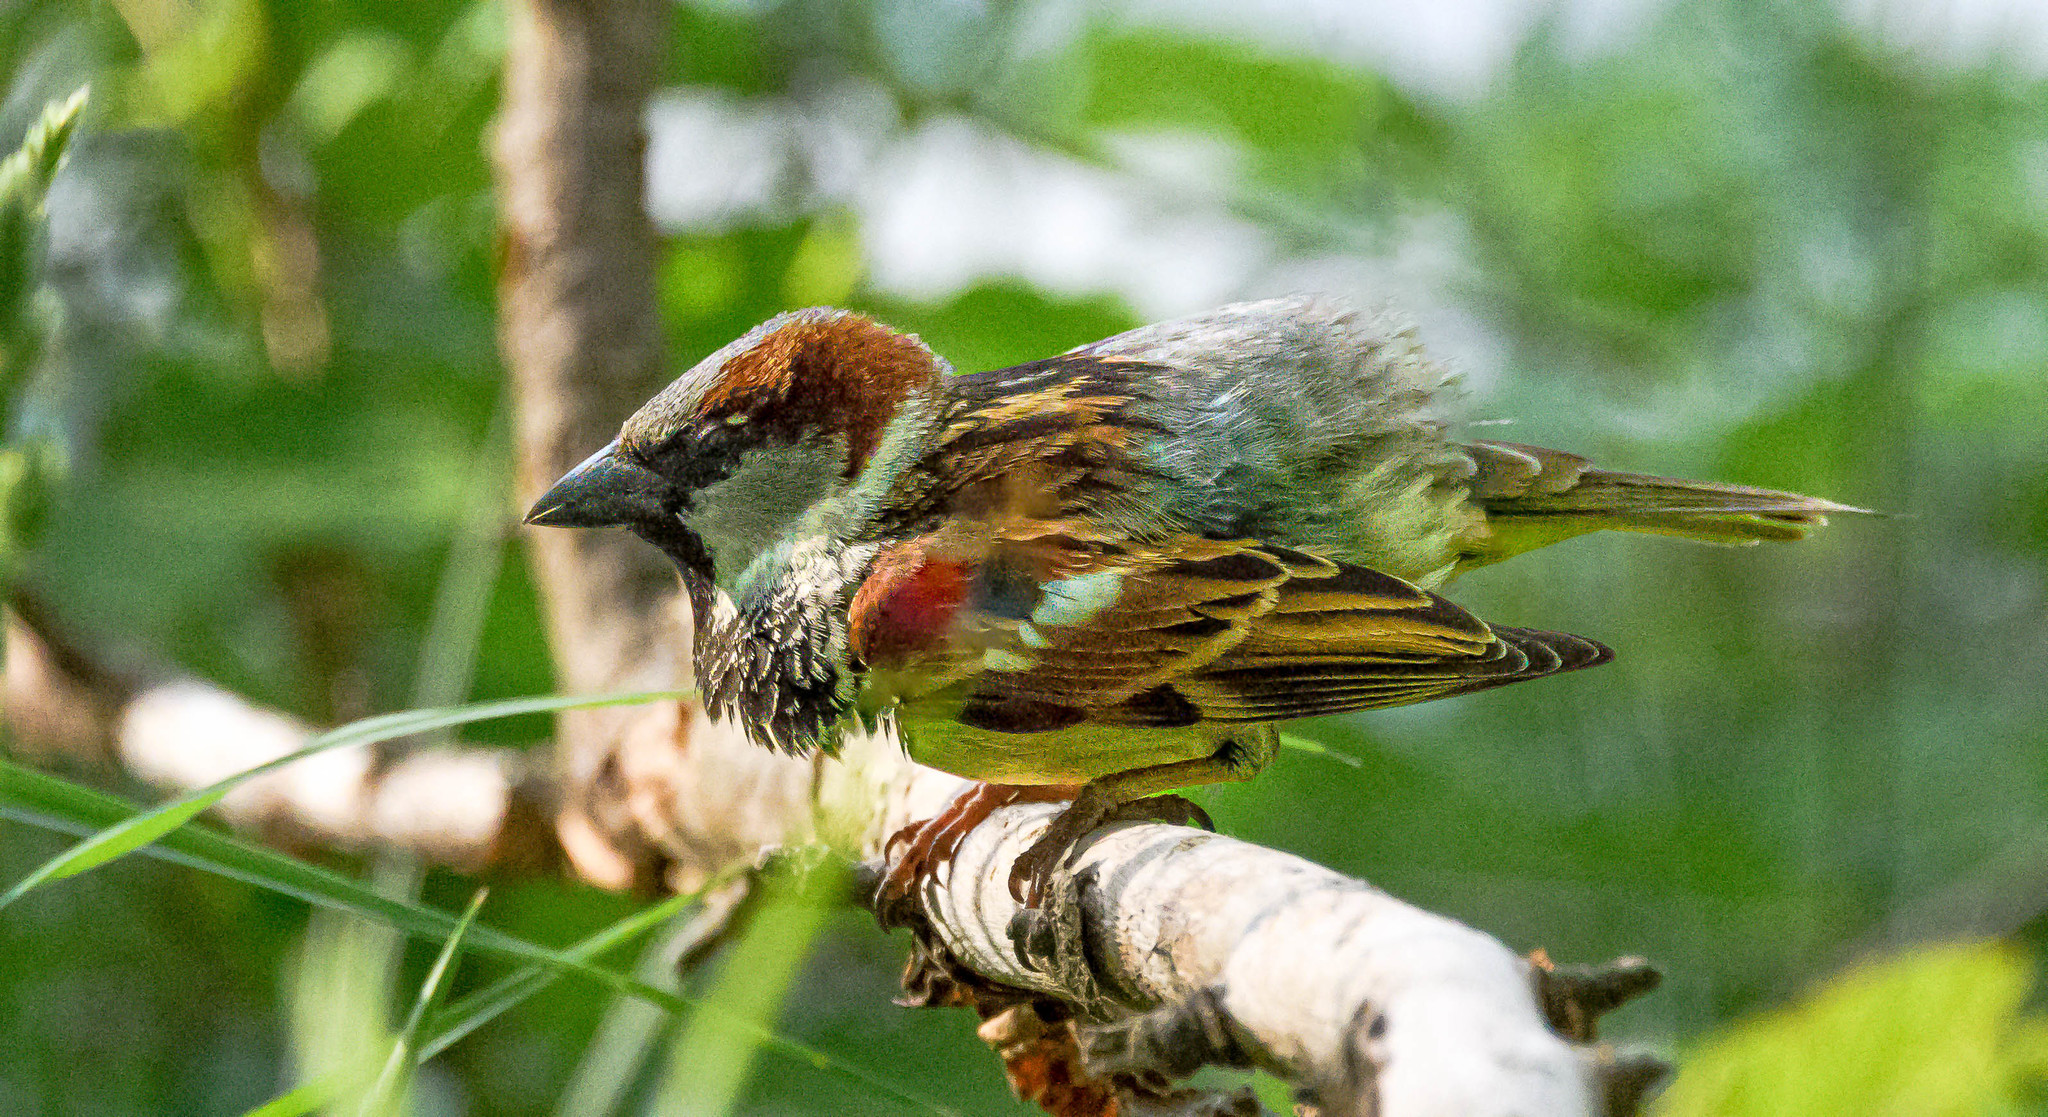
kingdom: Animalia
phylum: Chordata
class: Aves
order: Passeriformes
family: Passeridae
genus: Passer
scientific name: Passer domesticus
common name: House sparrow
